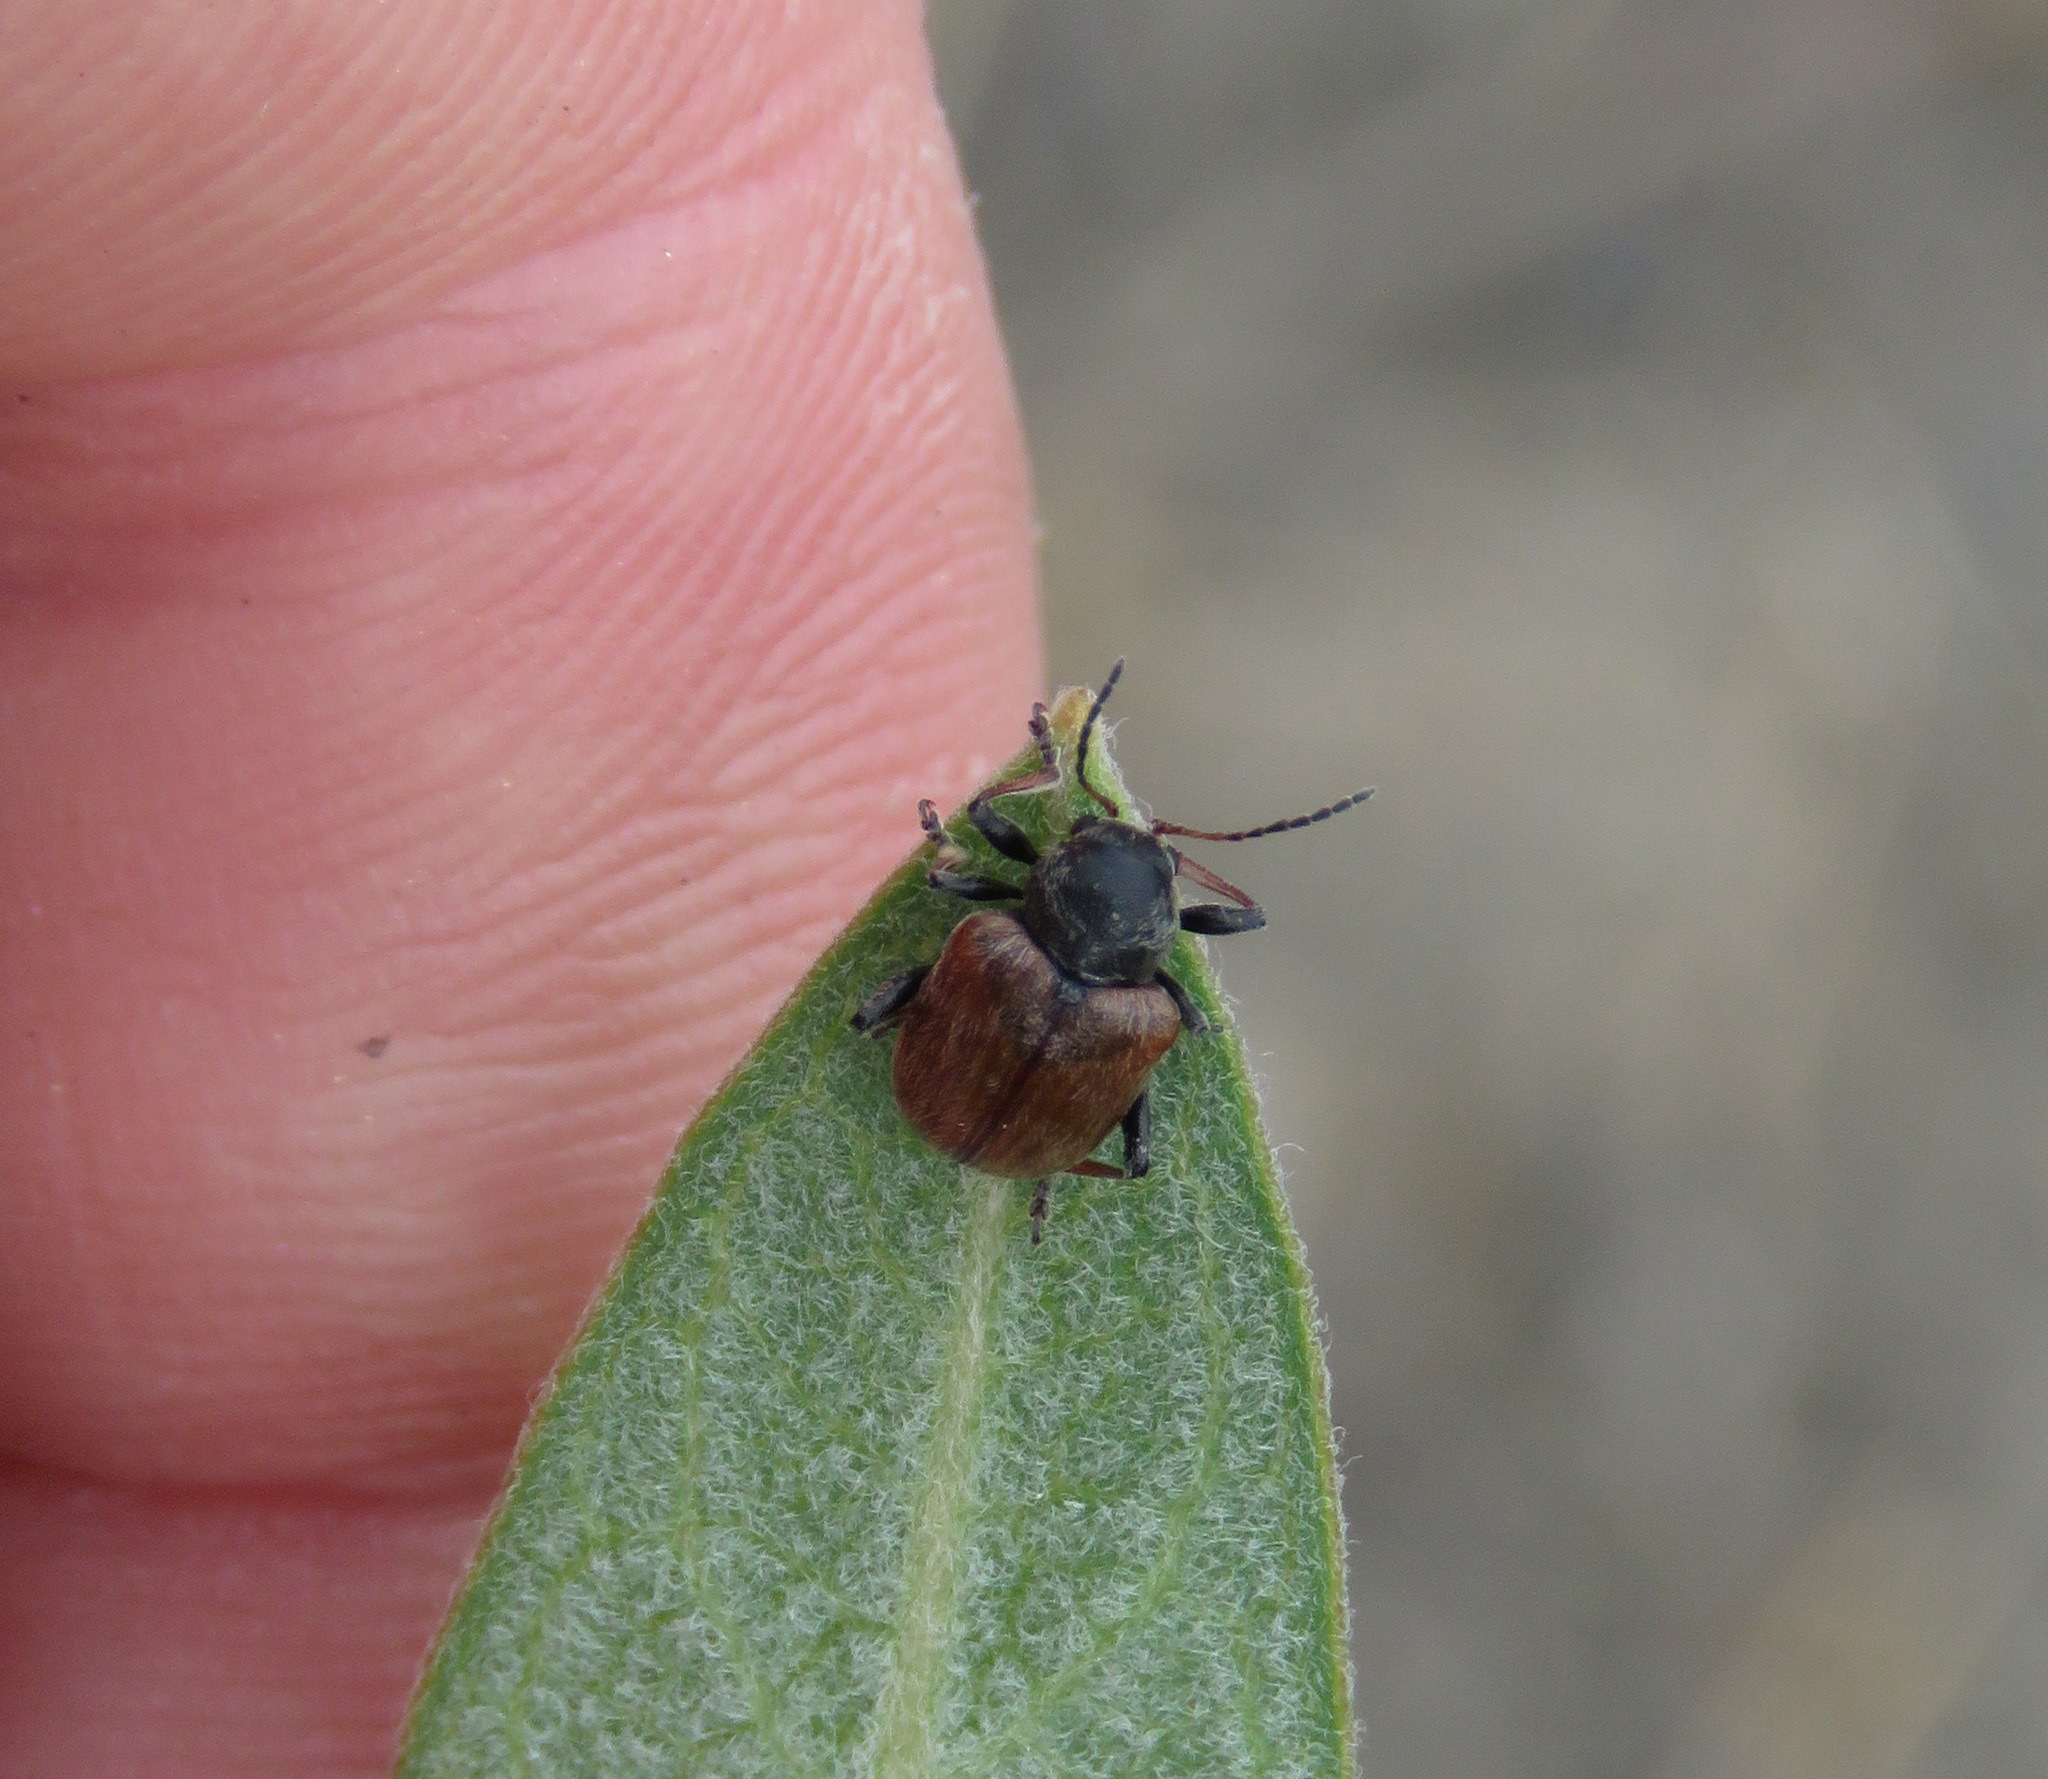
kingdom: Animalia
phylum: Arthropoda
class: Insecta
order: Coleoptera
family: Chrysomelidae
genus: Bromius
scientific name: Bromius obscurus
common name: Western grape rootworm
